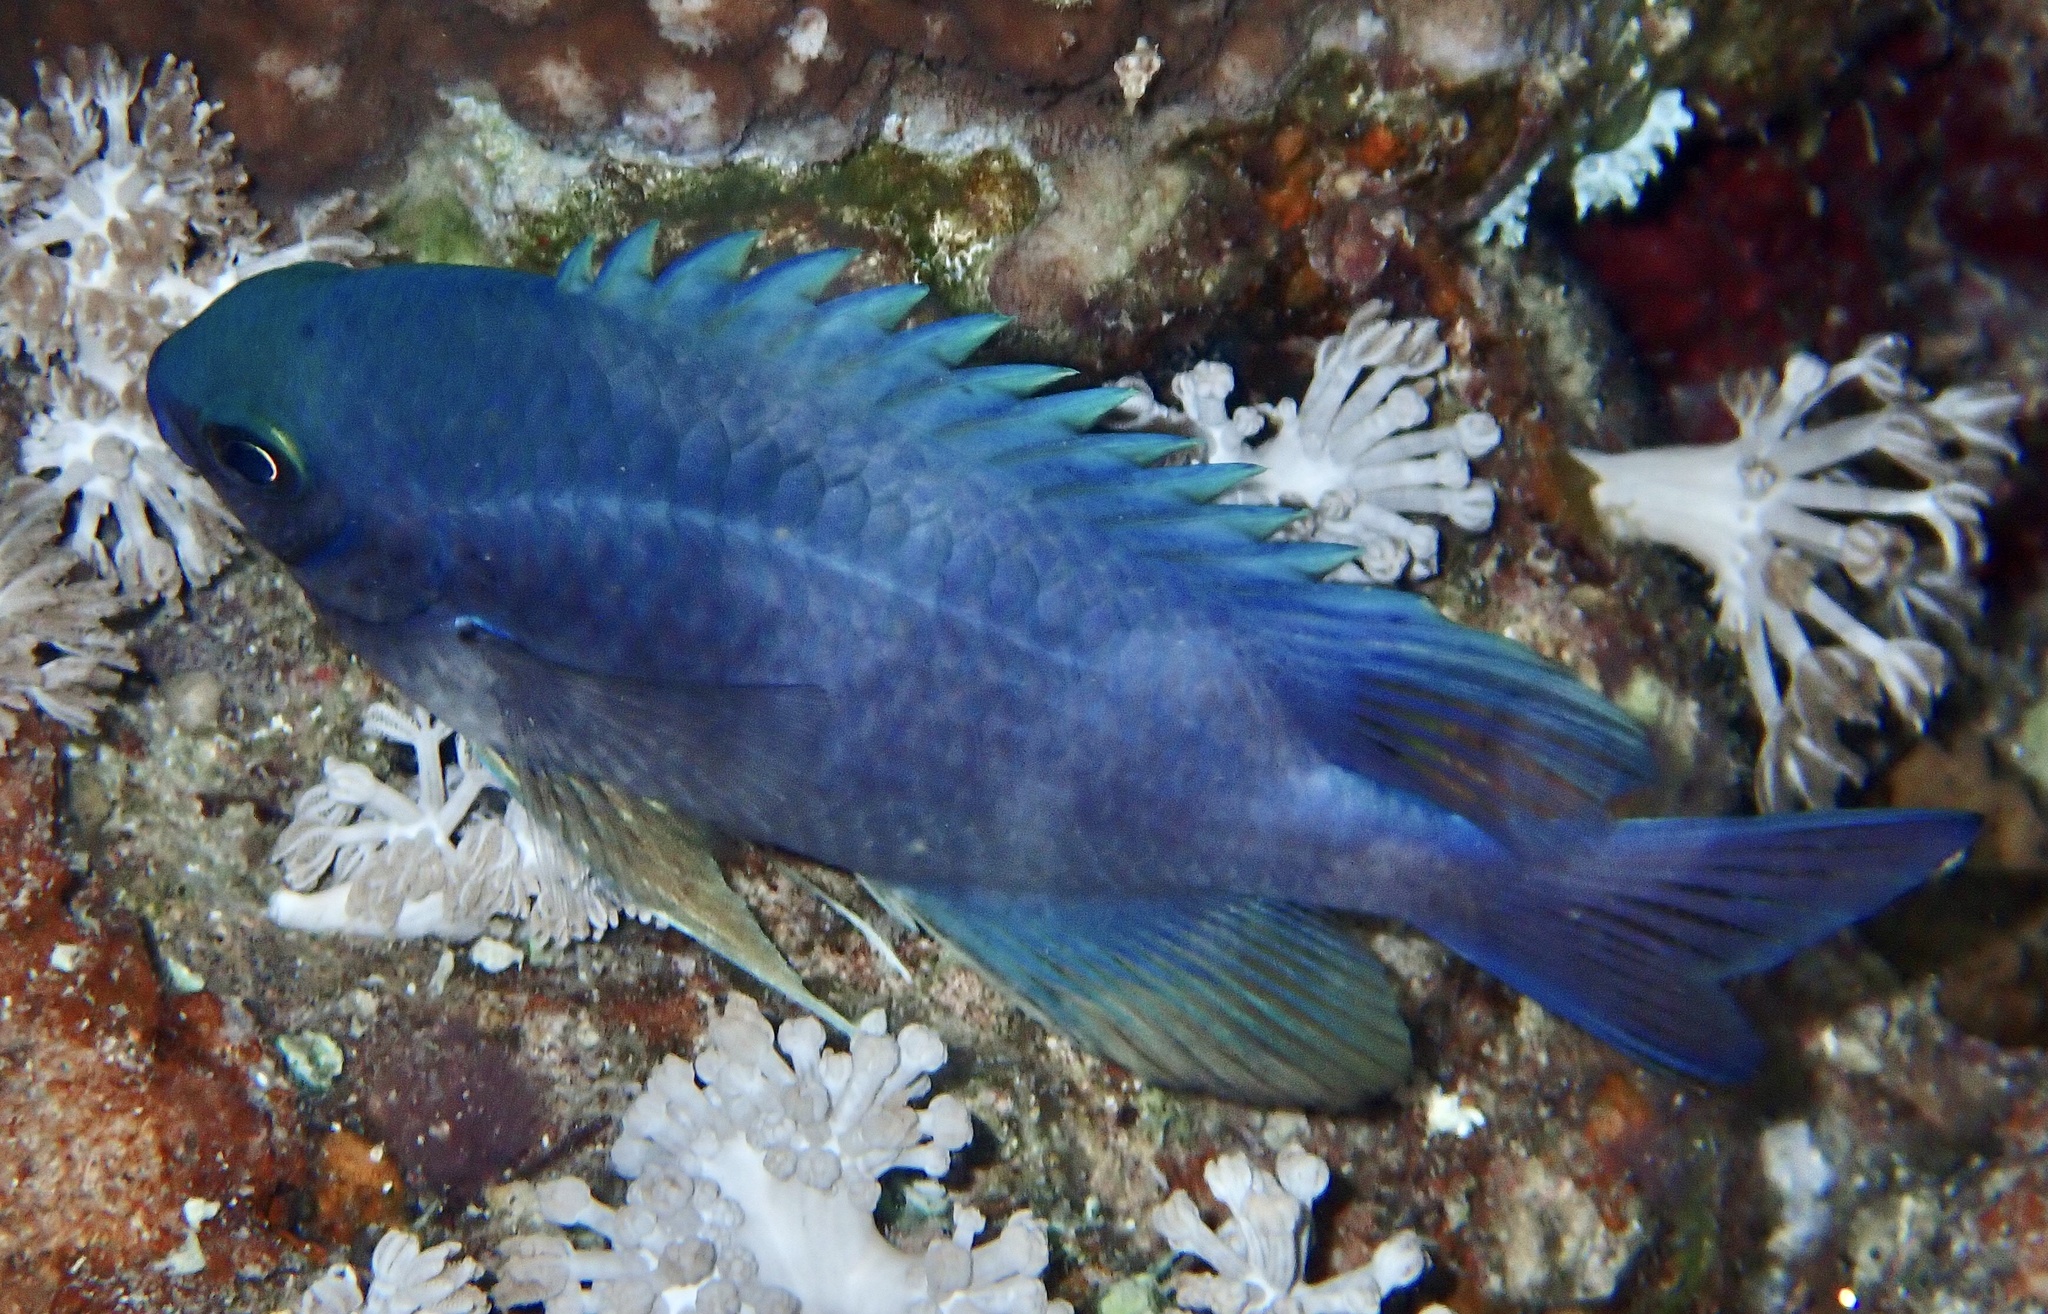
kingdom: Animalia
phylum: Chordata
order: Perciformes
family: Pomacentridae
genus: Amblyglyphidodon
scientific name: Amblyglyphidodon indicus
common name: Maldives damselfish
